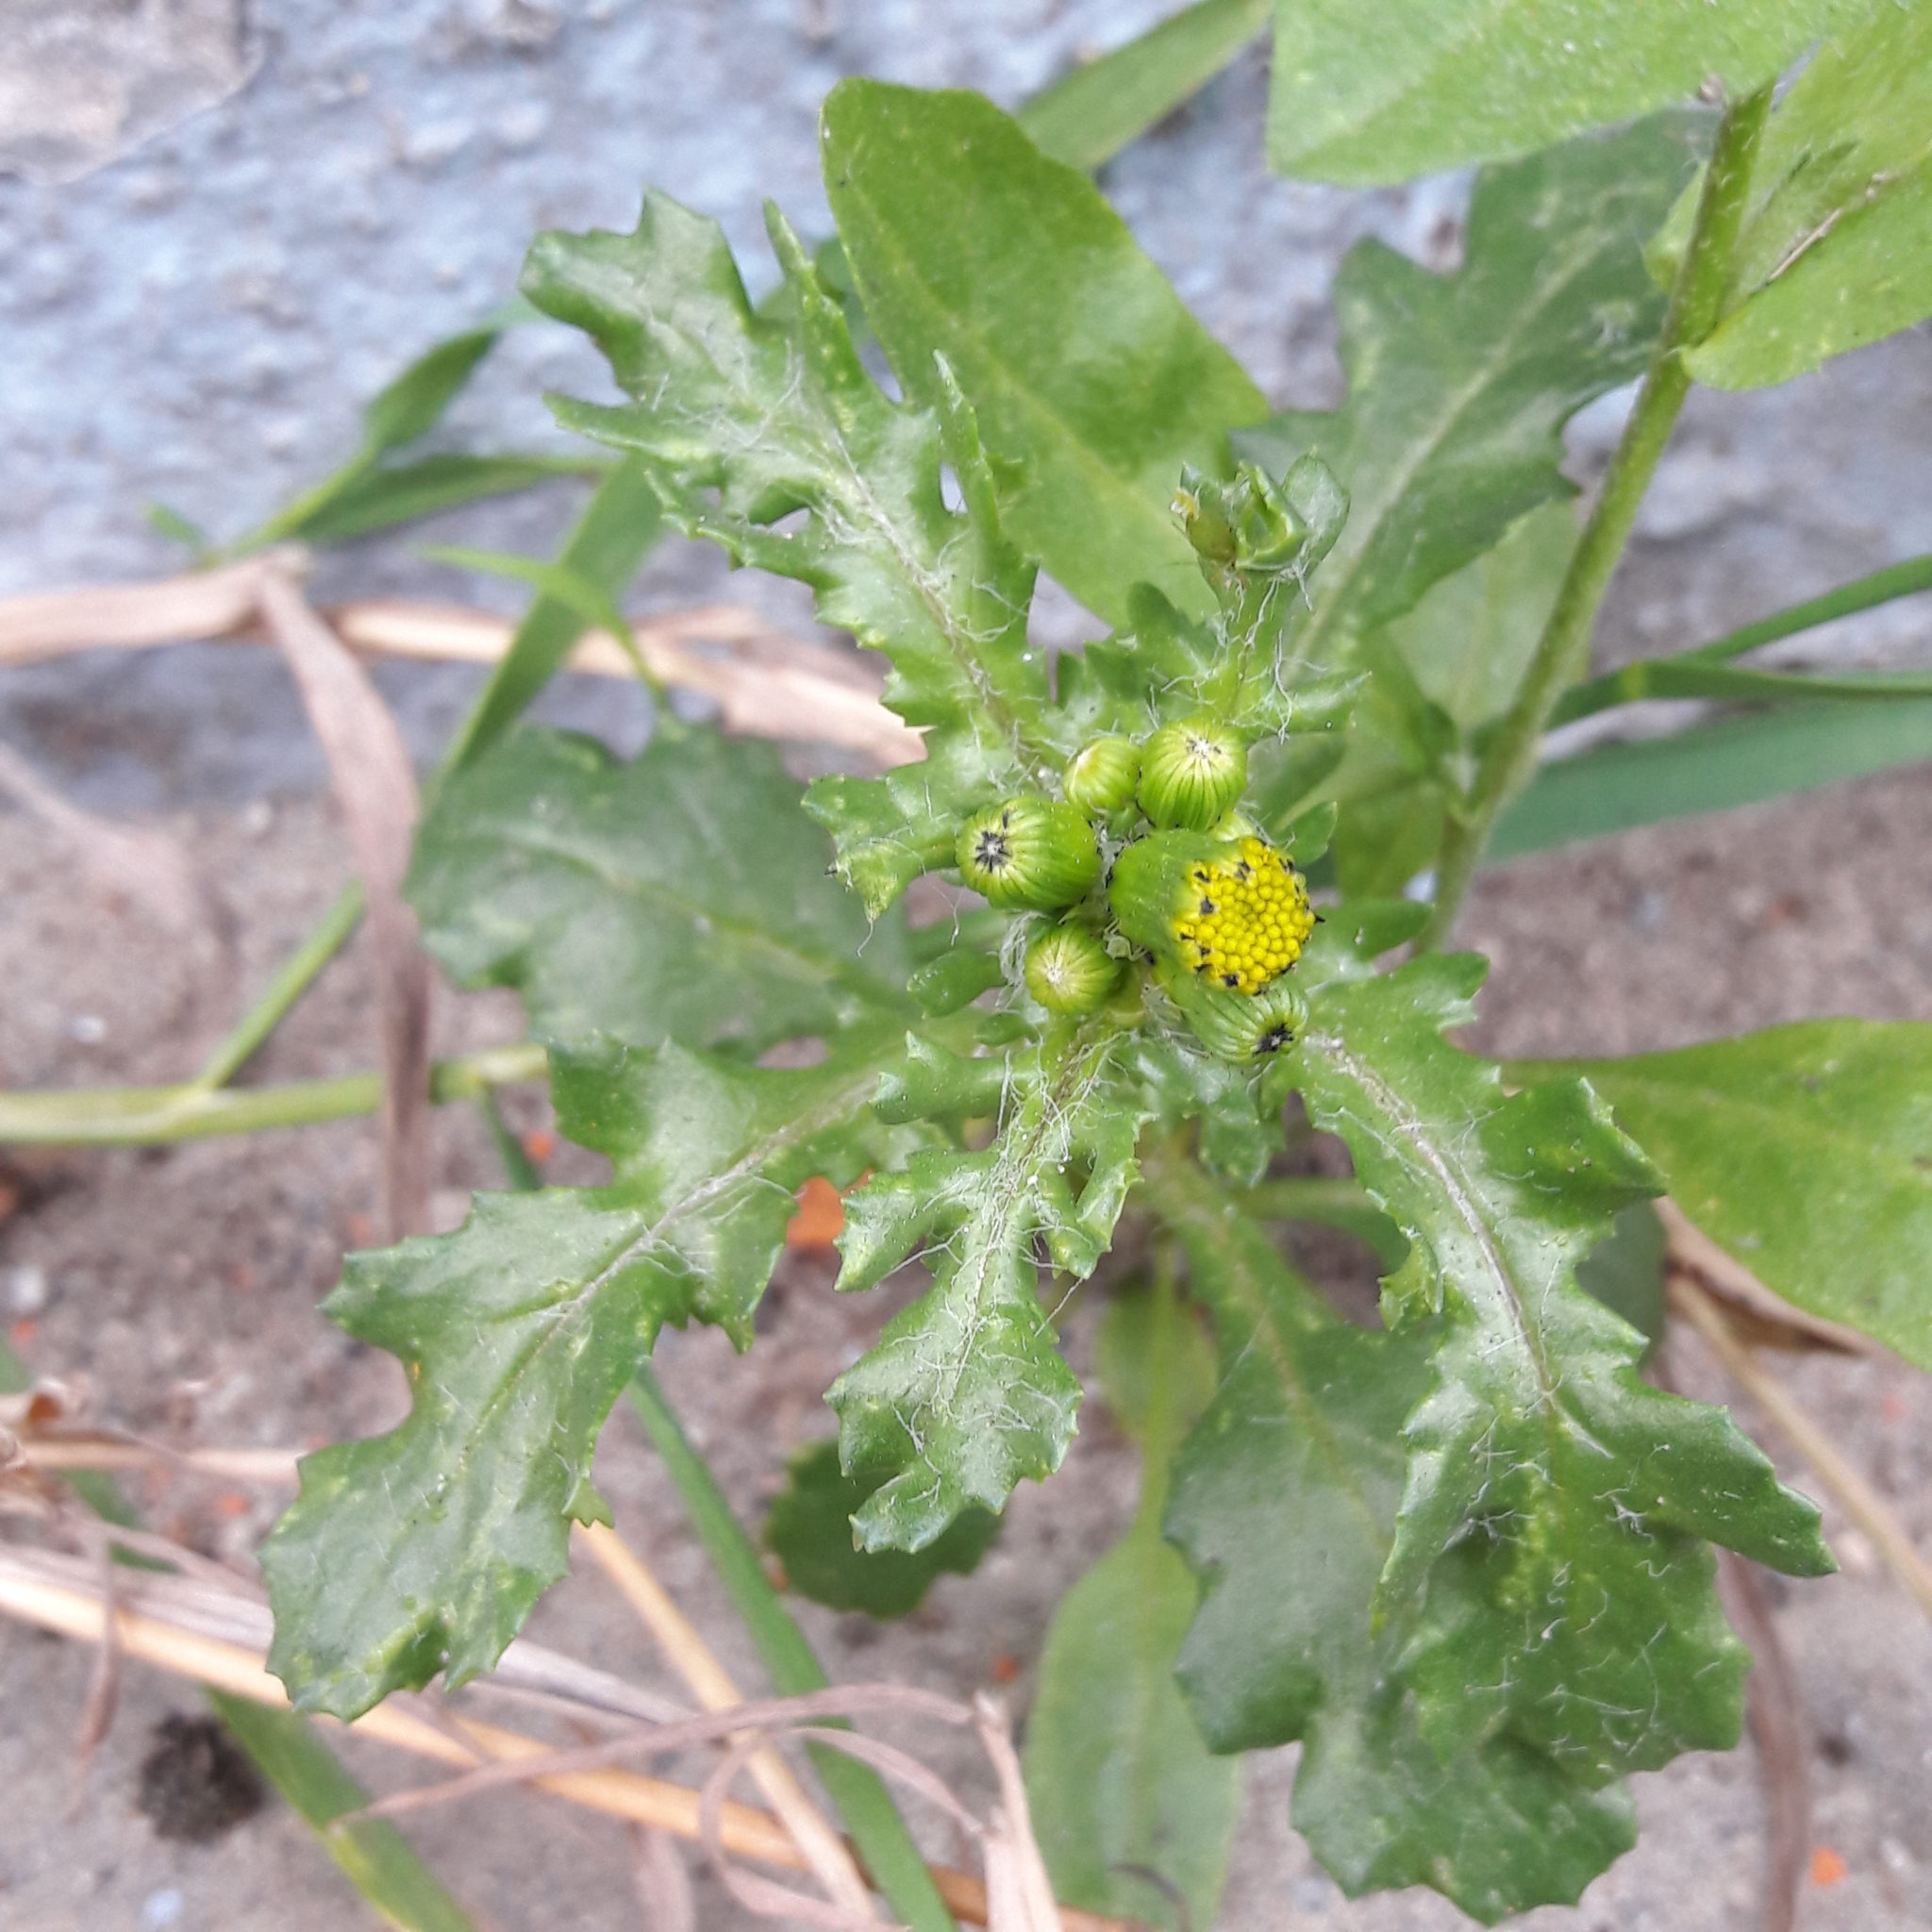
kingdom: Plantae
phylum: Tracheophyta
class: Magnoliopsida
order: Asterales
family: Asteraceae
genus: Senecio
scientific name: Senecio vulgaris
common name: Old-man-in-the-spring
